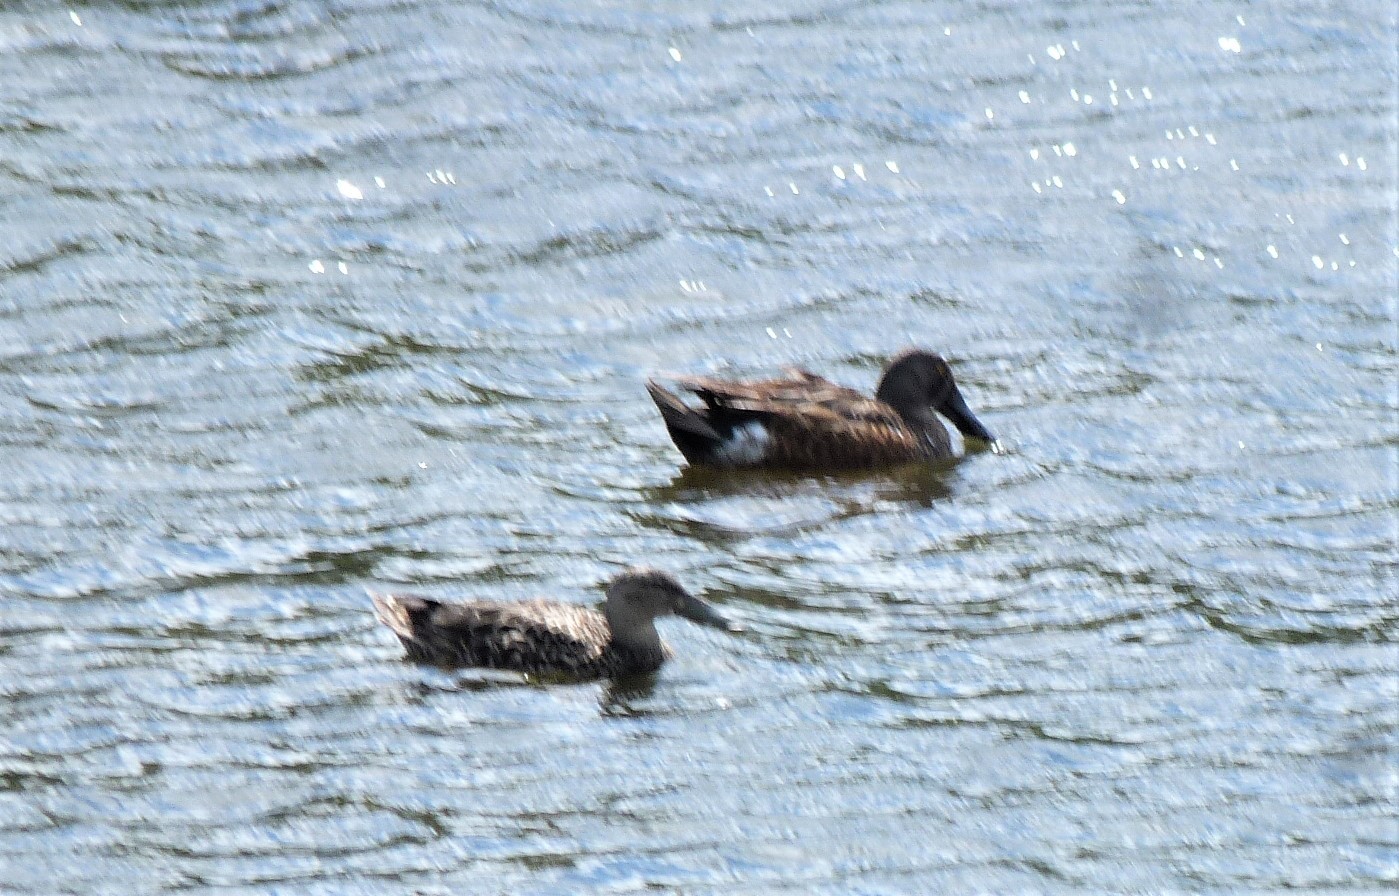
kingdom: Animalia
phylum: Chordata
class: Aves
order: Anseriformes
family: Anatidae
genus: Spatula
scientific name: Spatula rhynchotis
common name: Australian shoveler
